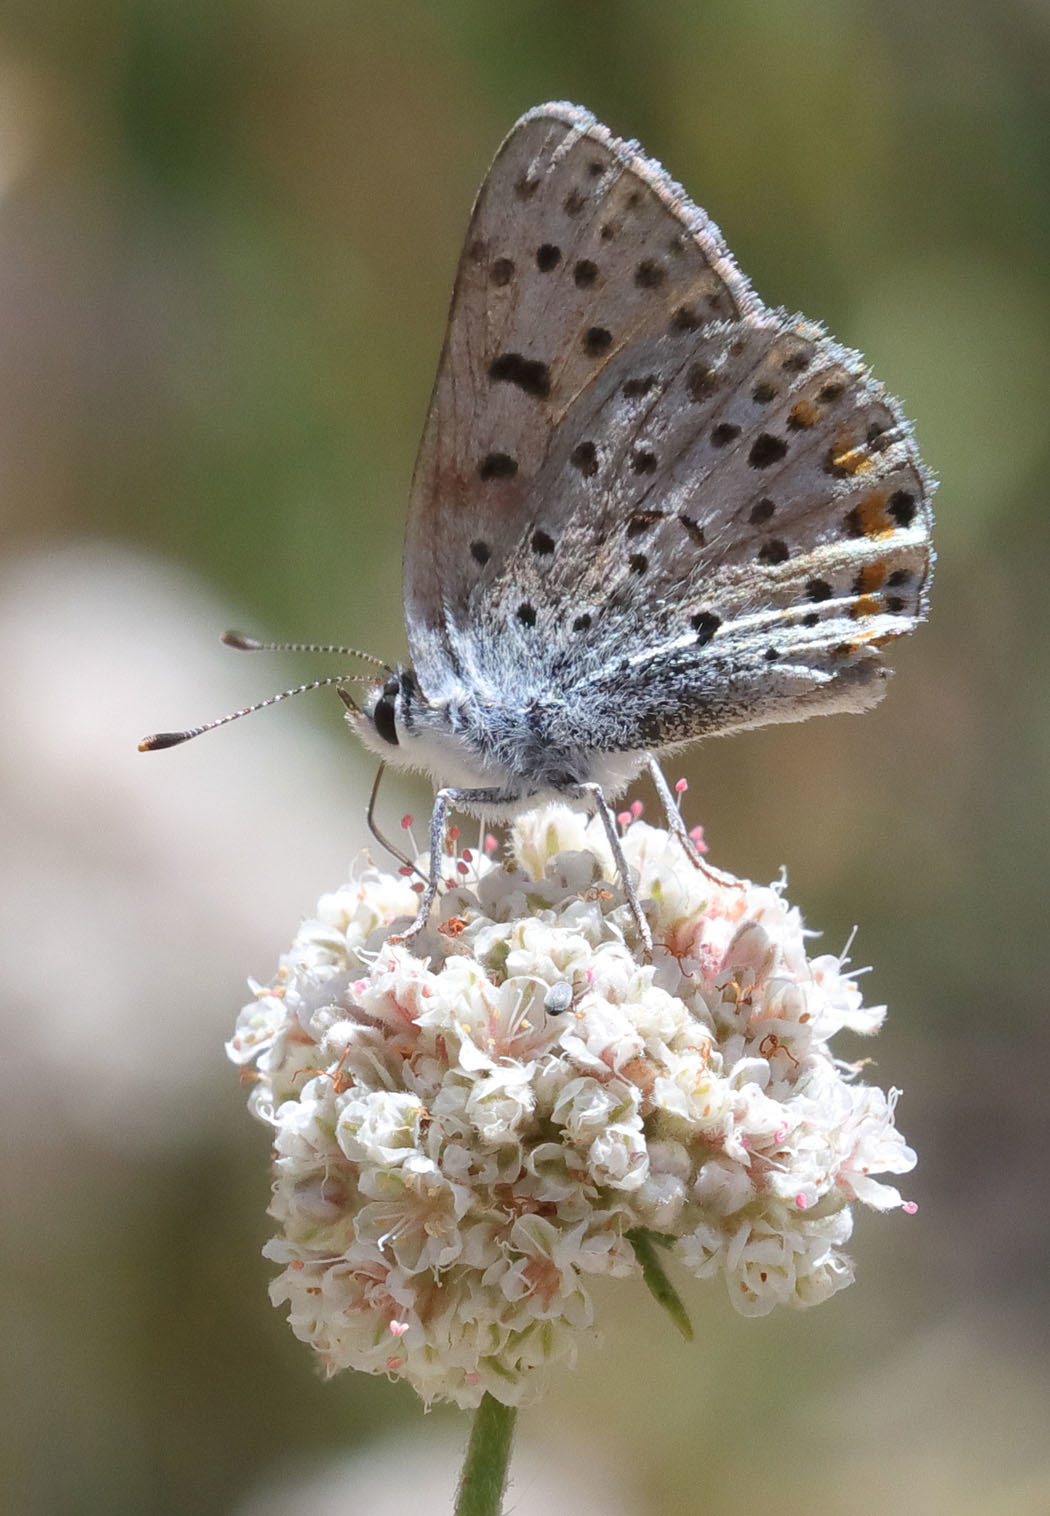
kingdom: Animalia
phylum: Arthropoda
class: Insecta
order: Lepidoptera
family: Lycaenidae
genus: Tharsalea
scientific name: Tharsalea gorgon
